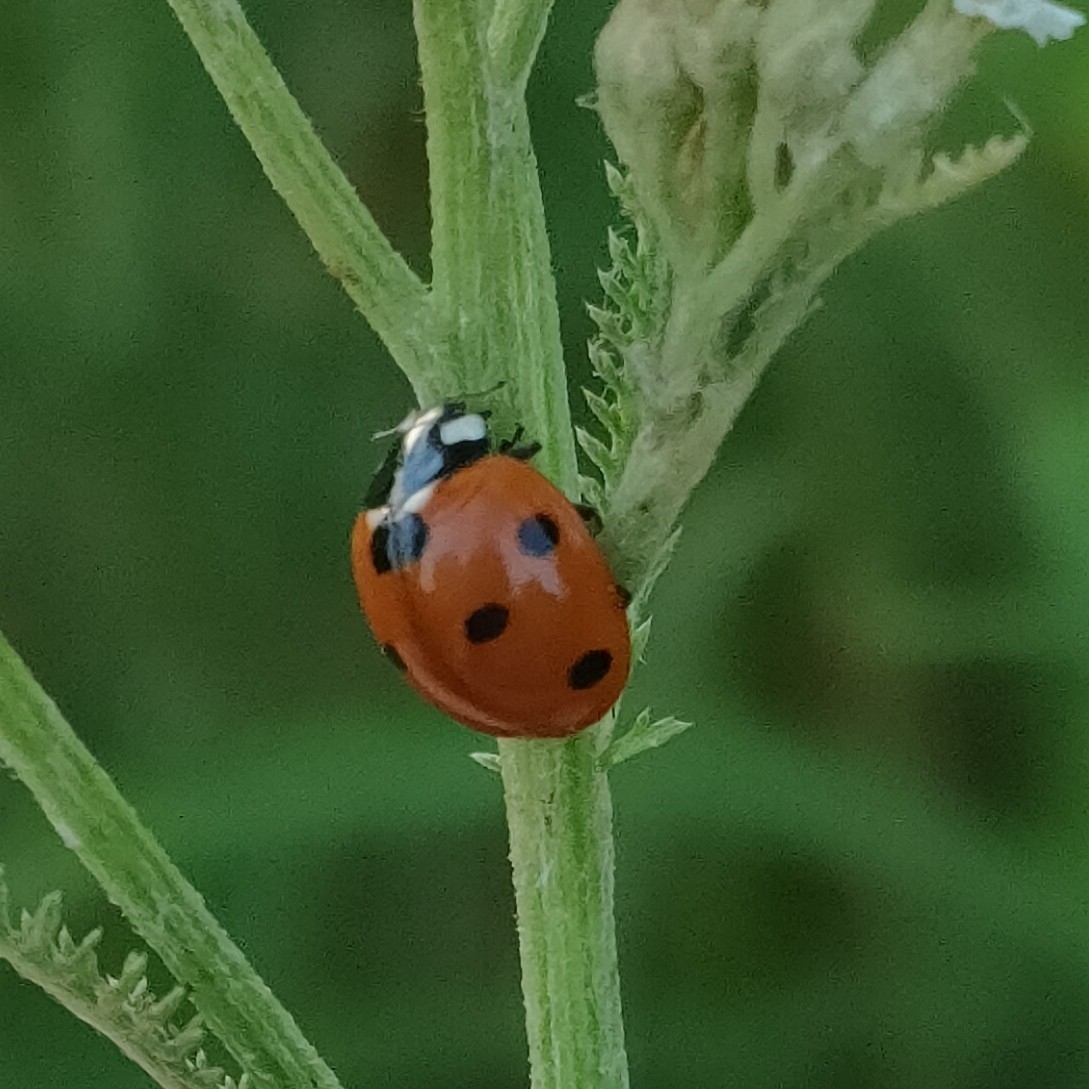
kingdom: Animalia
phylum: Arthropoda
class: Insecta
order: Coleoptera
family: Coccinellidae
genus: Coccinella
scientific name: Coccinella septempunctata
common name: Sevenspotted lady beetle
